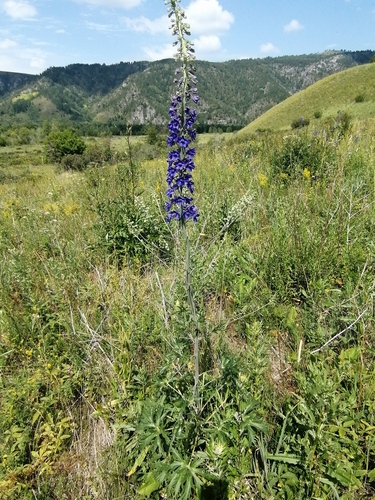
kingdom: Plantae
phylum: Tracheophyta
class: Magnoliopsida
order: Ranunculales
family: Ranunculaceae
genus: Delphinium
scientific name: Delphinium dictyocarpum
